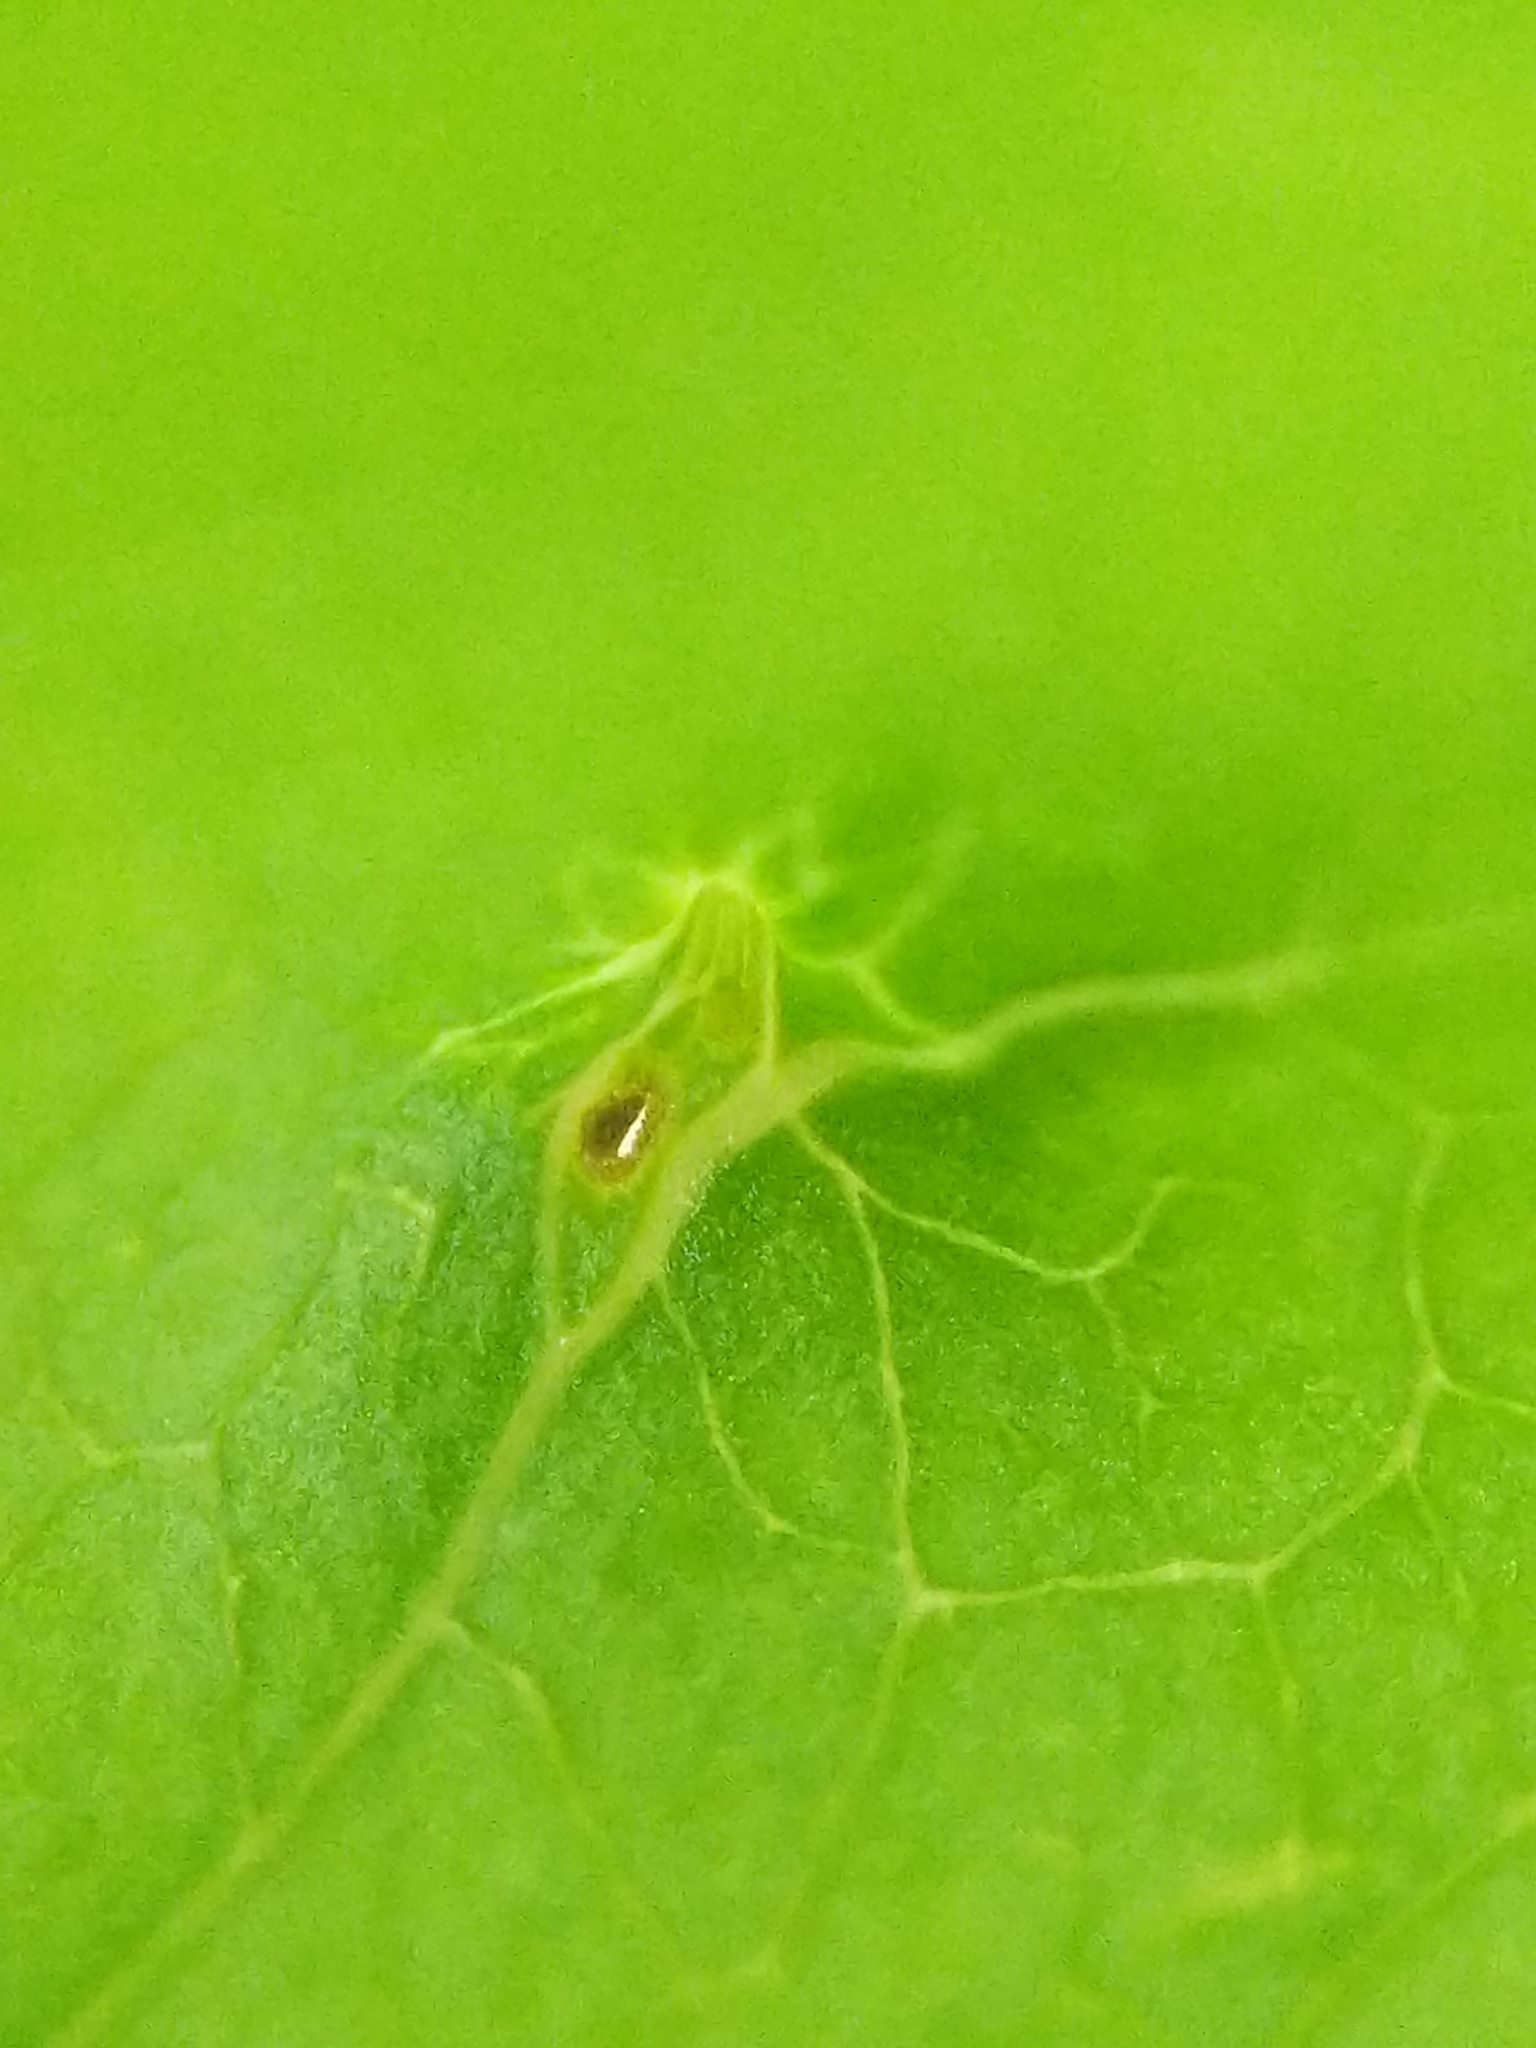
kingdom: Animalia
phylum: Arthropoda
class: Arachnida
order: Trombidiformes
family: Eriophyidae
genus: Eriophyes
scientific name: Eriophyes
